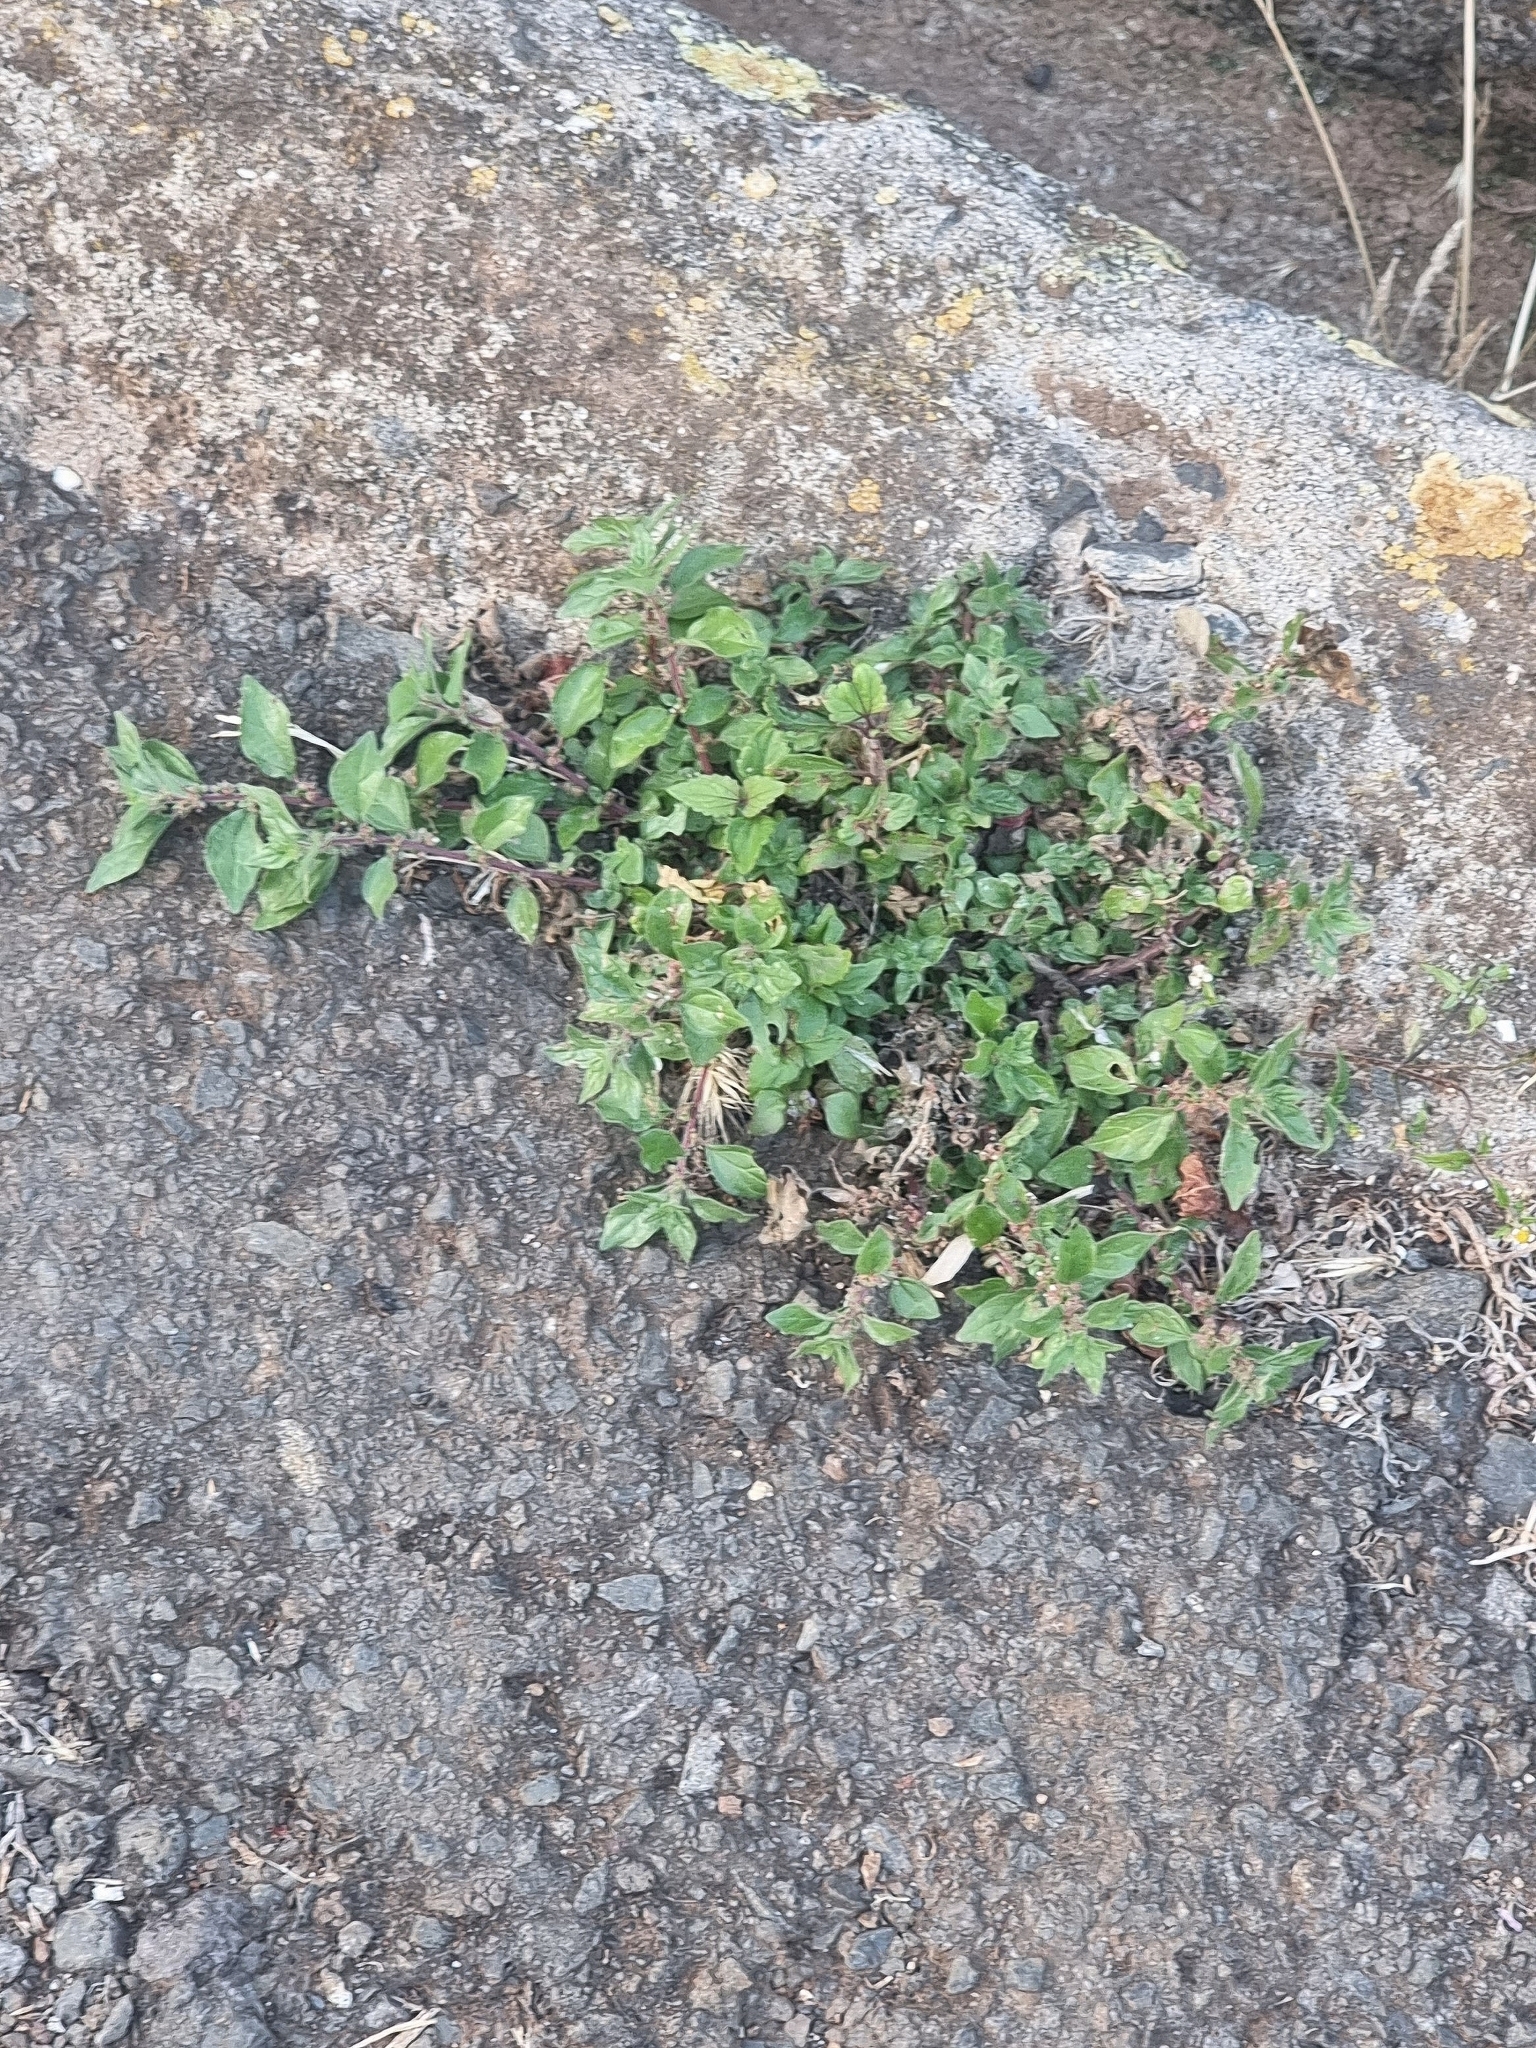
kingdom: Plantae
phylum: Tracheophyta
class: Magnoliopsida
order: Rosales
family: Urticaceae
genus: Parietaria
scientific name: Parietaria judaica
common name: Pellitory-of-the-wall
